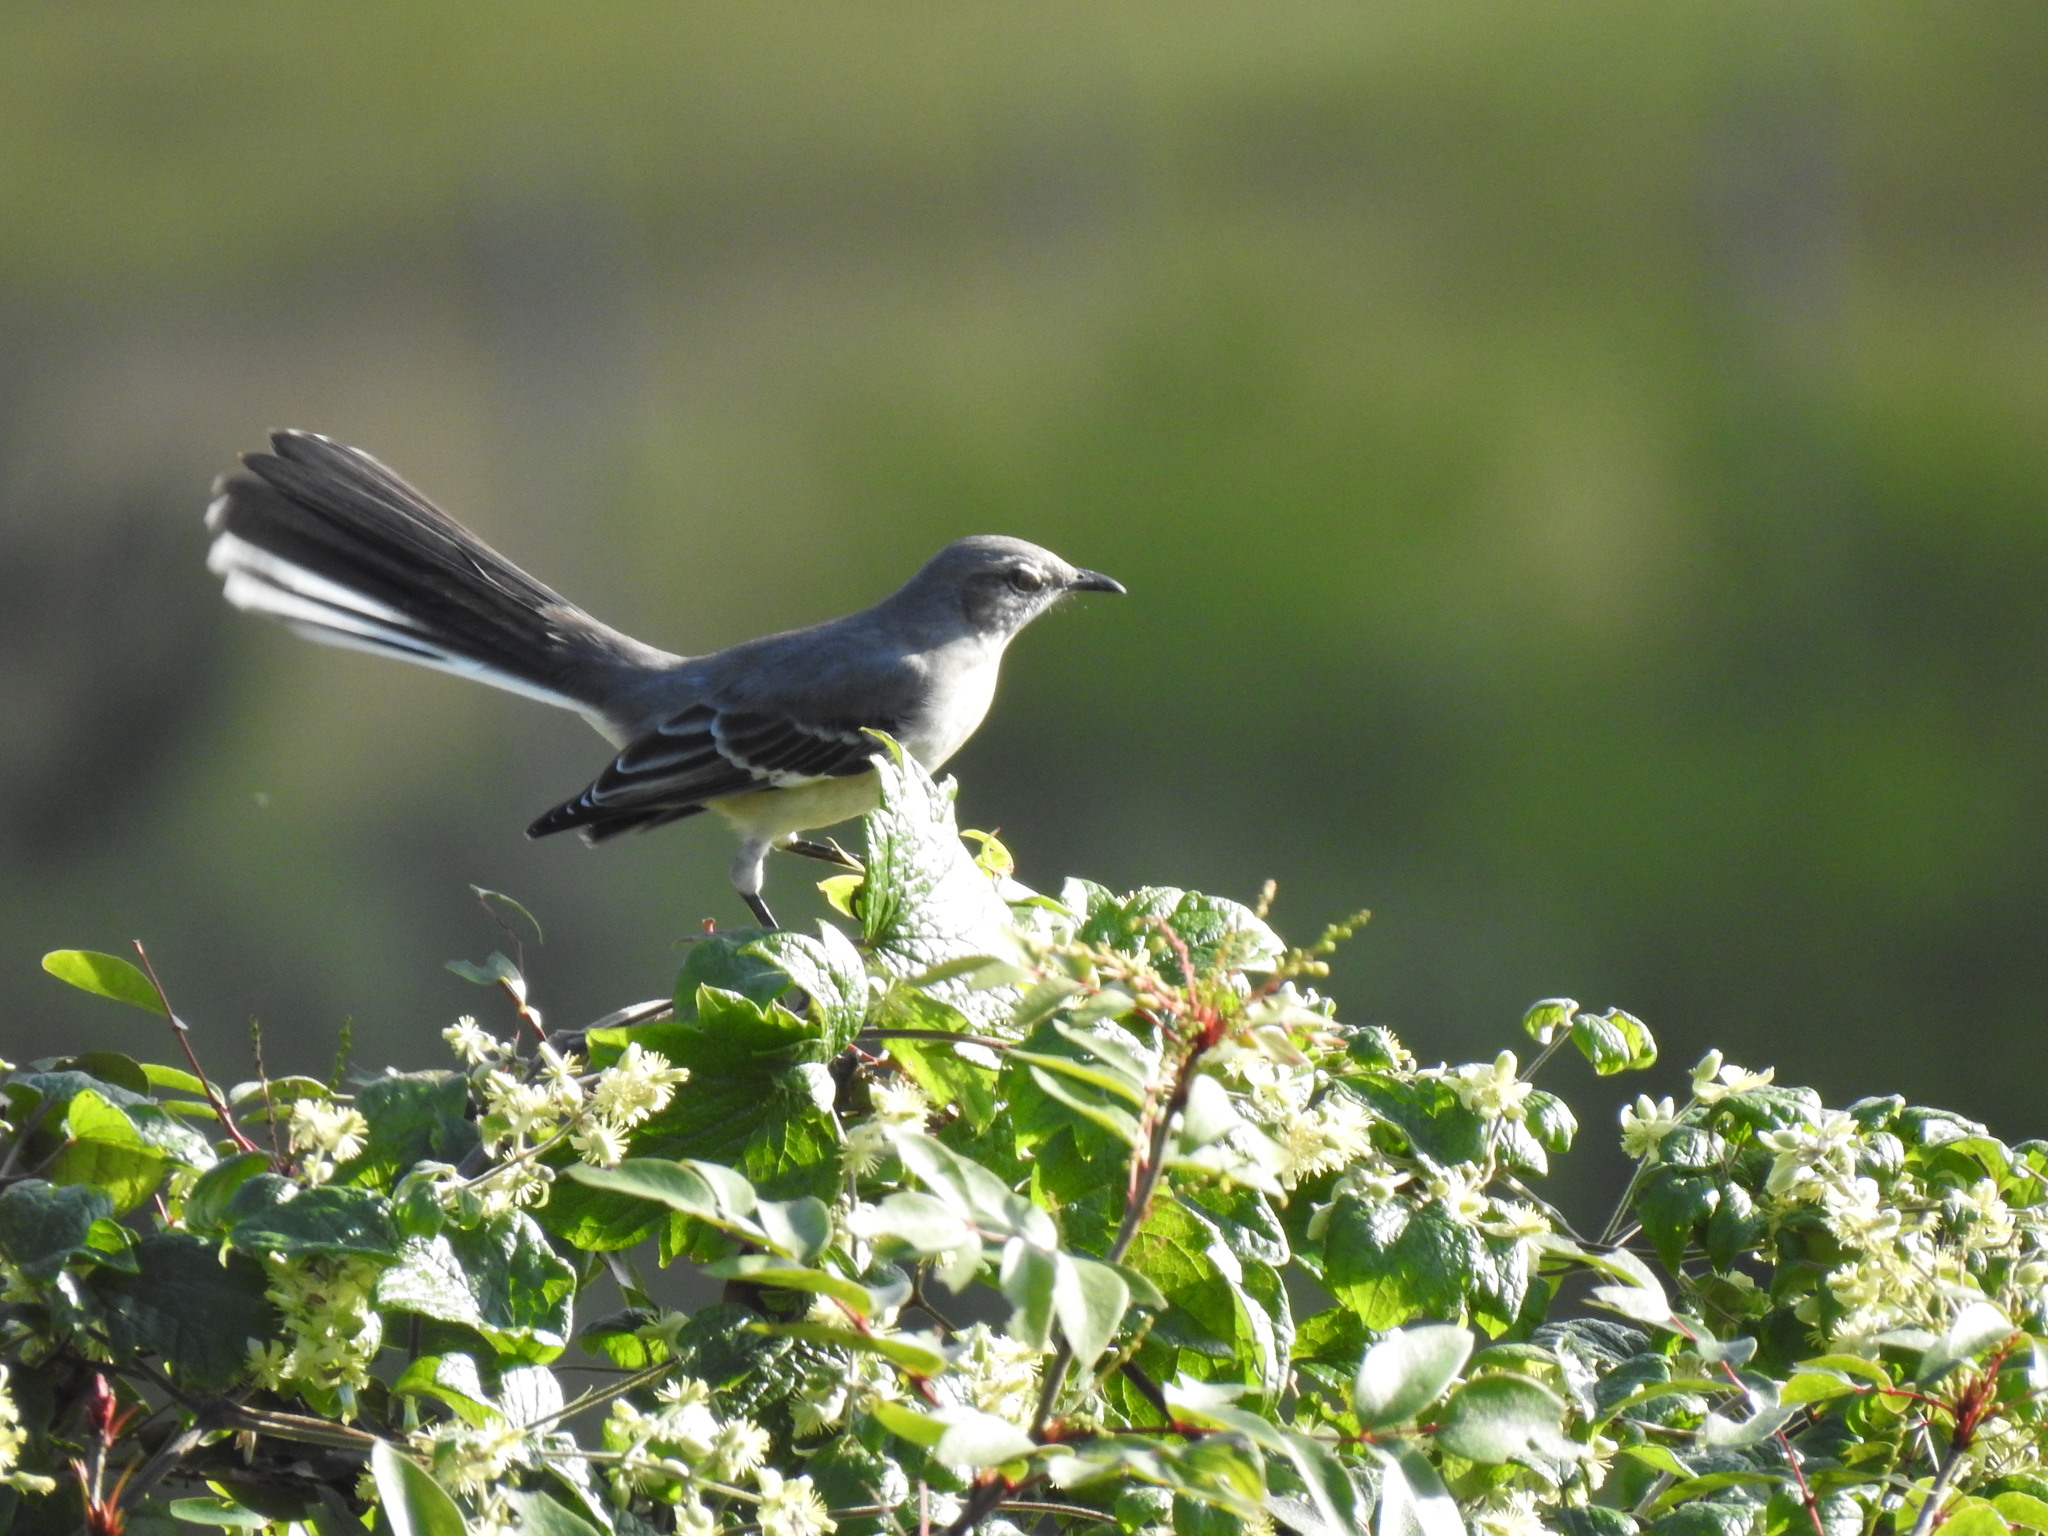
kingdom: Animalia
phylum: Chordata
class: Aves
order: Passeriformes
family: Mimidae
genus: Mimus
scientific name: Mimus polyglottos
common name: Northern mockingbird
